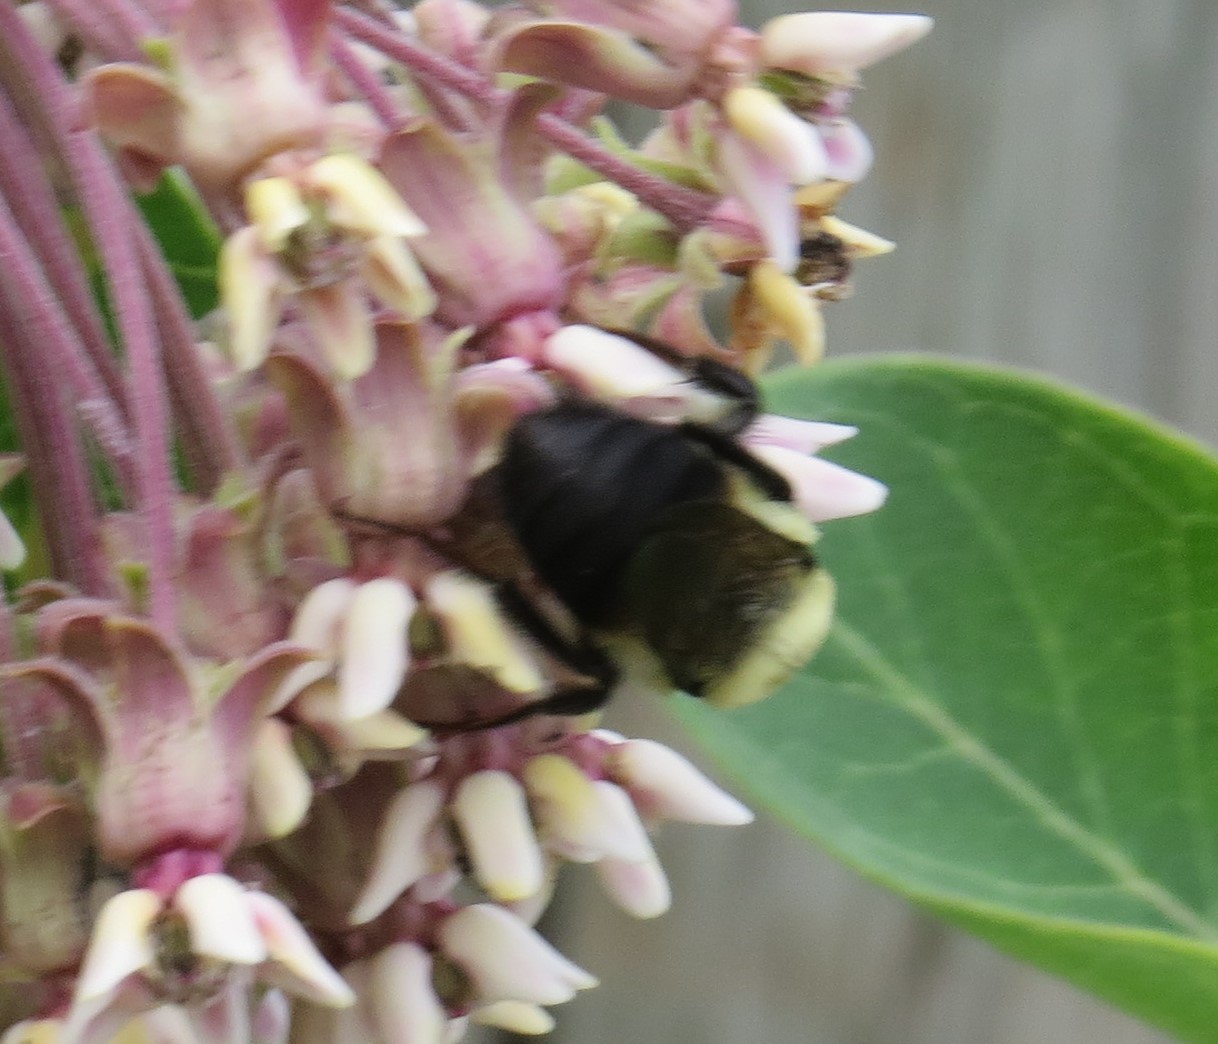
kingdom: Animalia
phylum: Arthropoda
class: Insecta
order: Hymenoptera
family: Apidae
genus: Bombus
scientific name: Bombus griseocollis
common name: Brown-belted bumble bee
